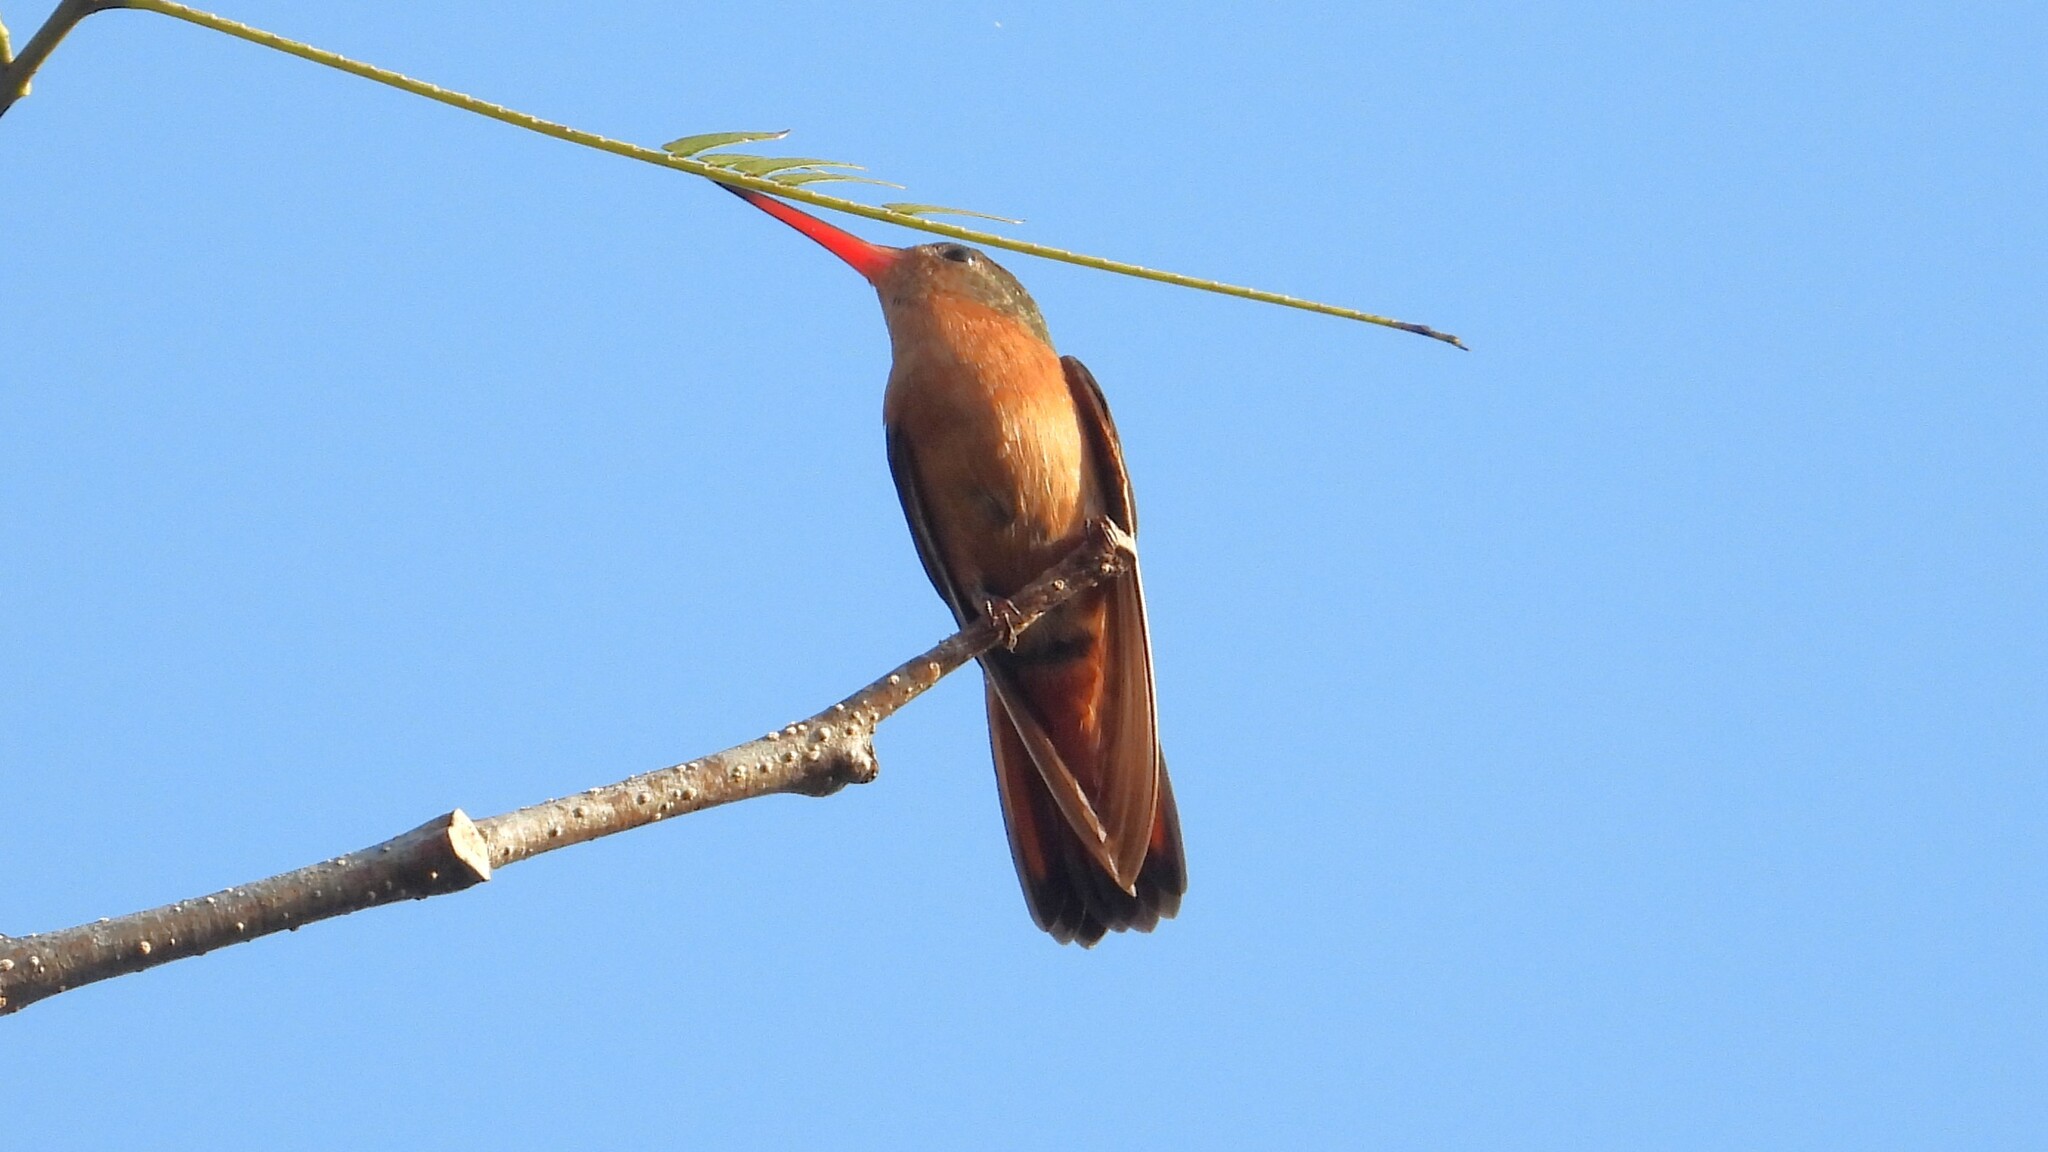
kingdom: Animalia
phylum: Chordata
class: Aves
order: Apodiformes
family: Trochilidae
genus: Amazilia
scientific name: Amazilia rutila
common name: Cinnamon hummingbird
